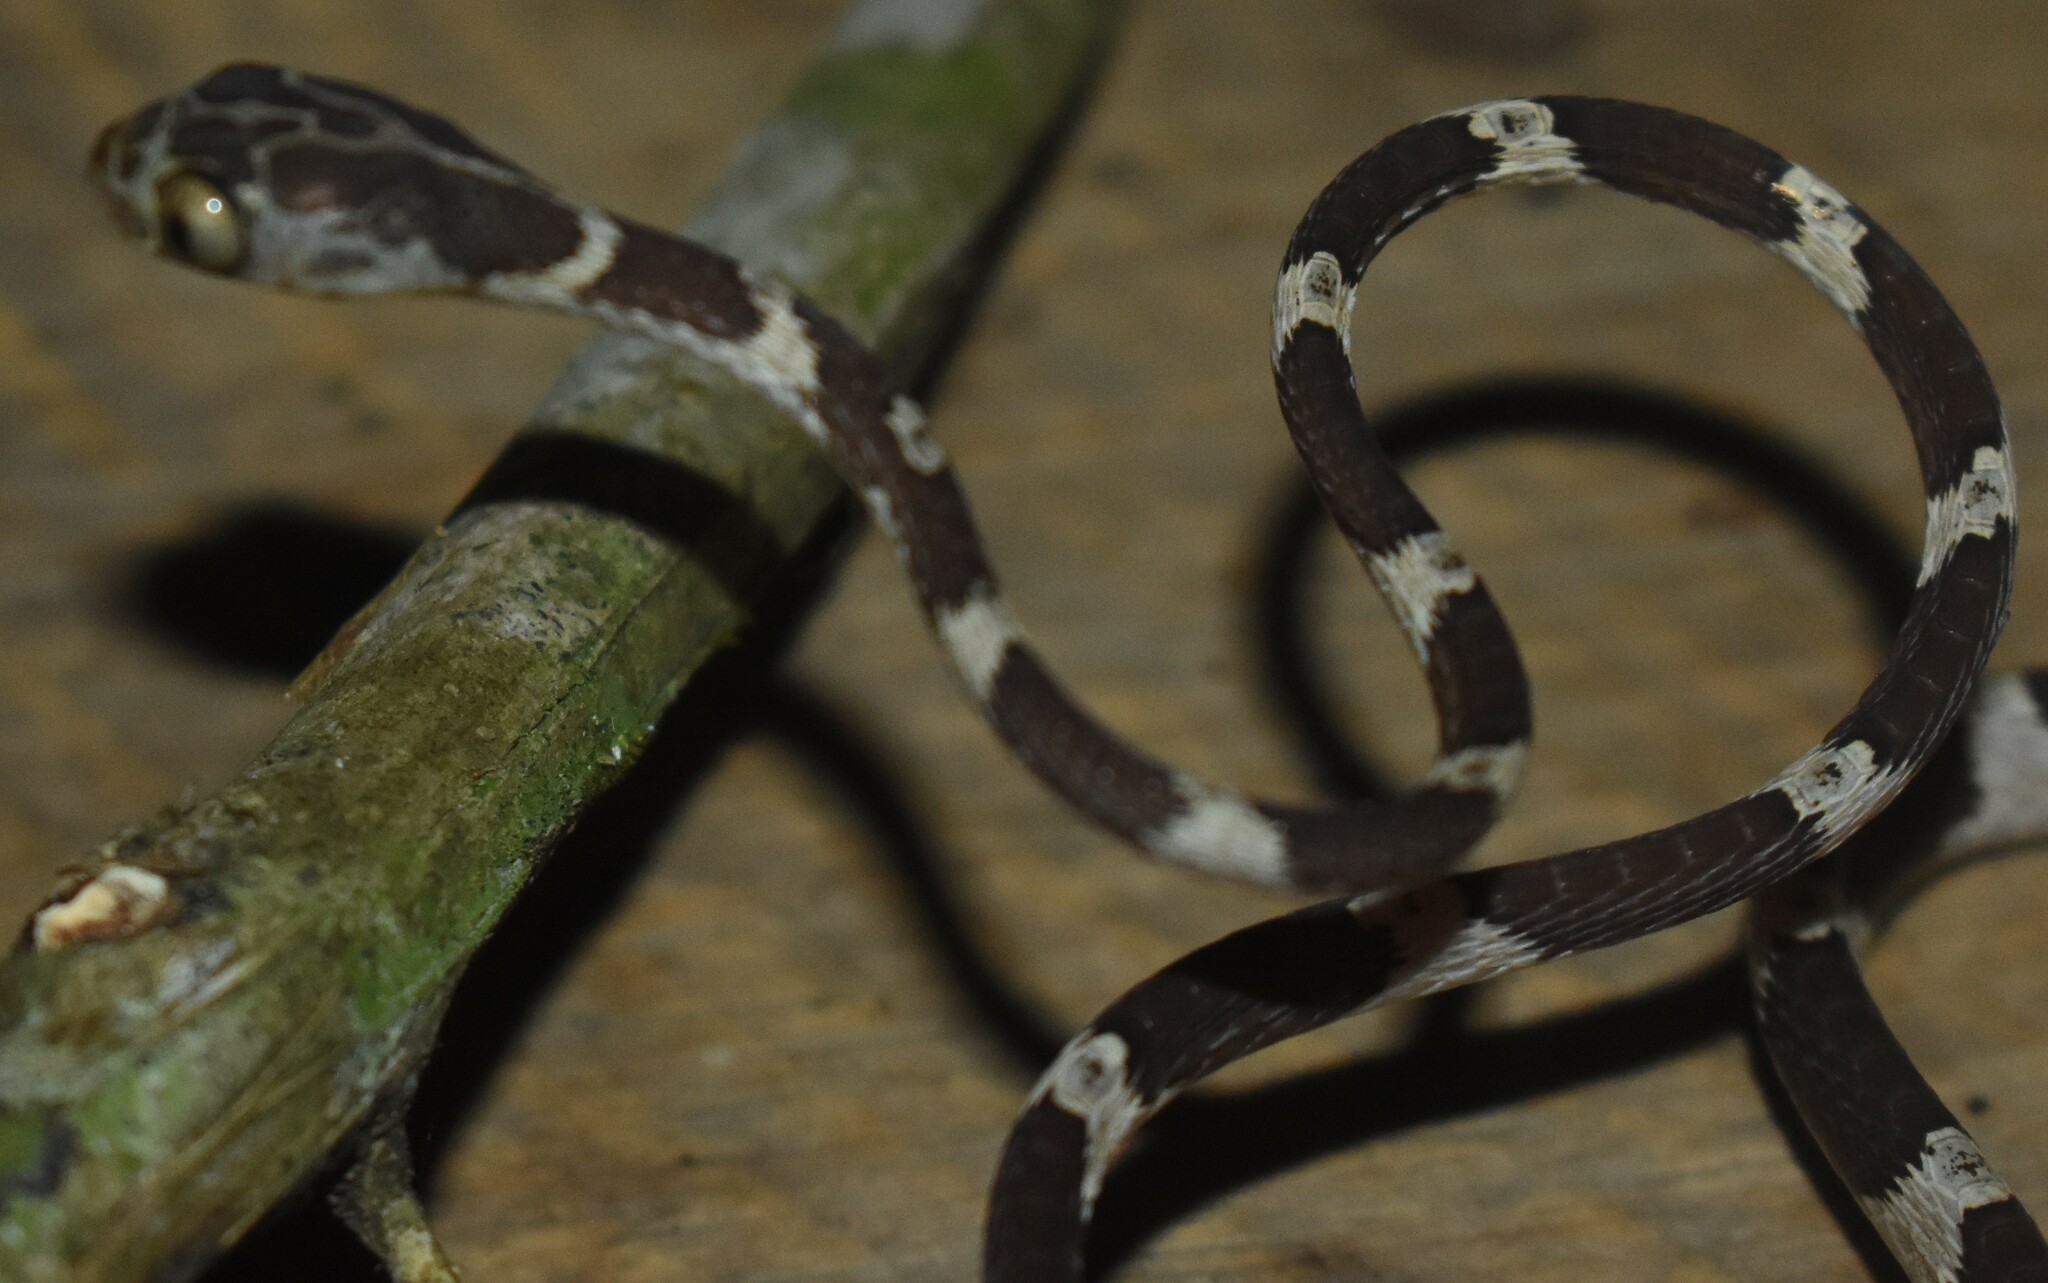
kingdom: Animalia
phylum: Chordata
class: Squamata
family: Colubridae
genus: Imantodes
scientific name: Imantodes cenchoa
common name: Blunthead tree snake
